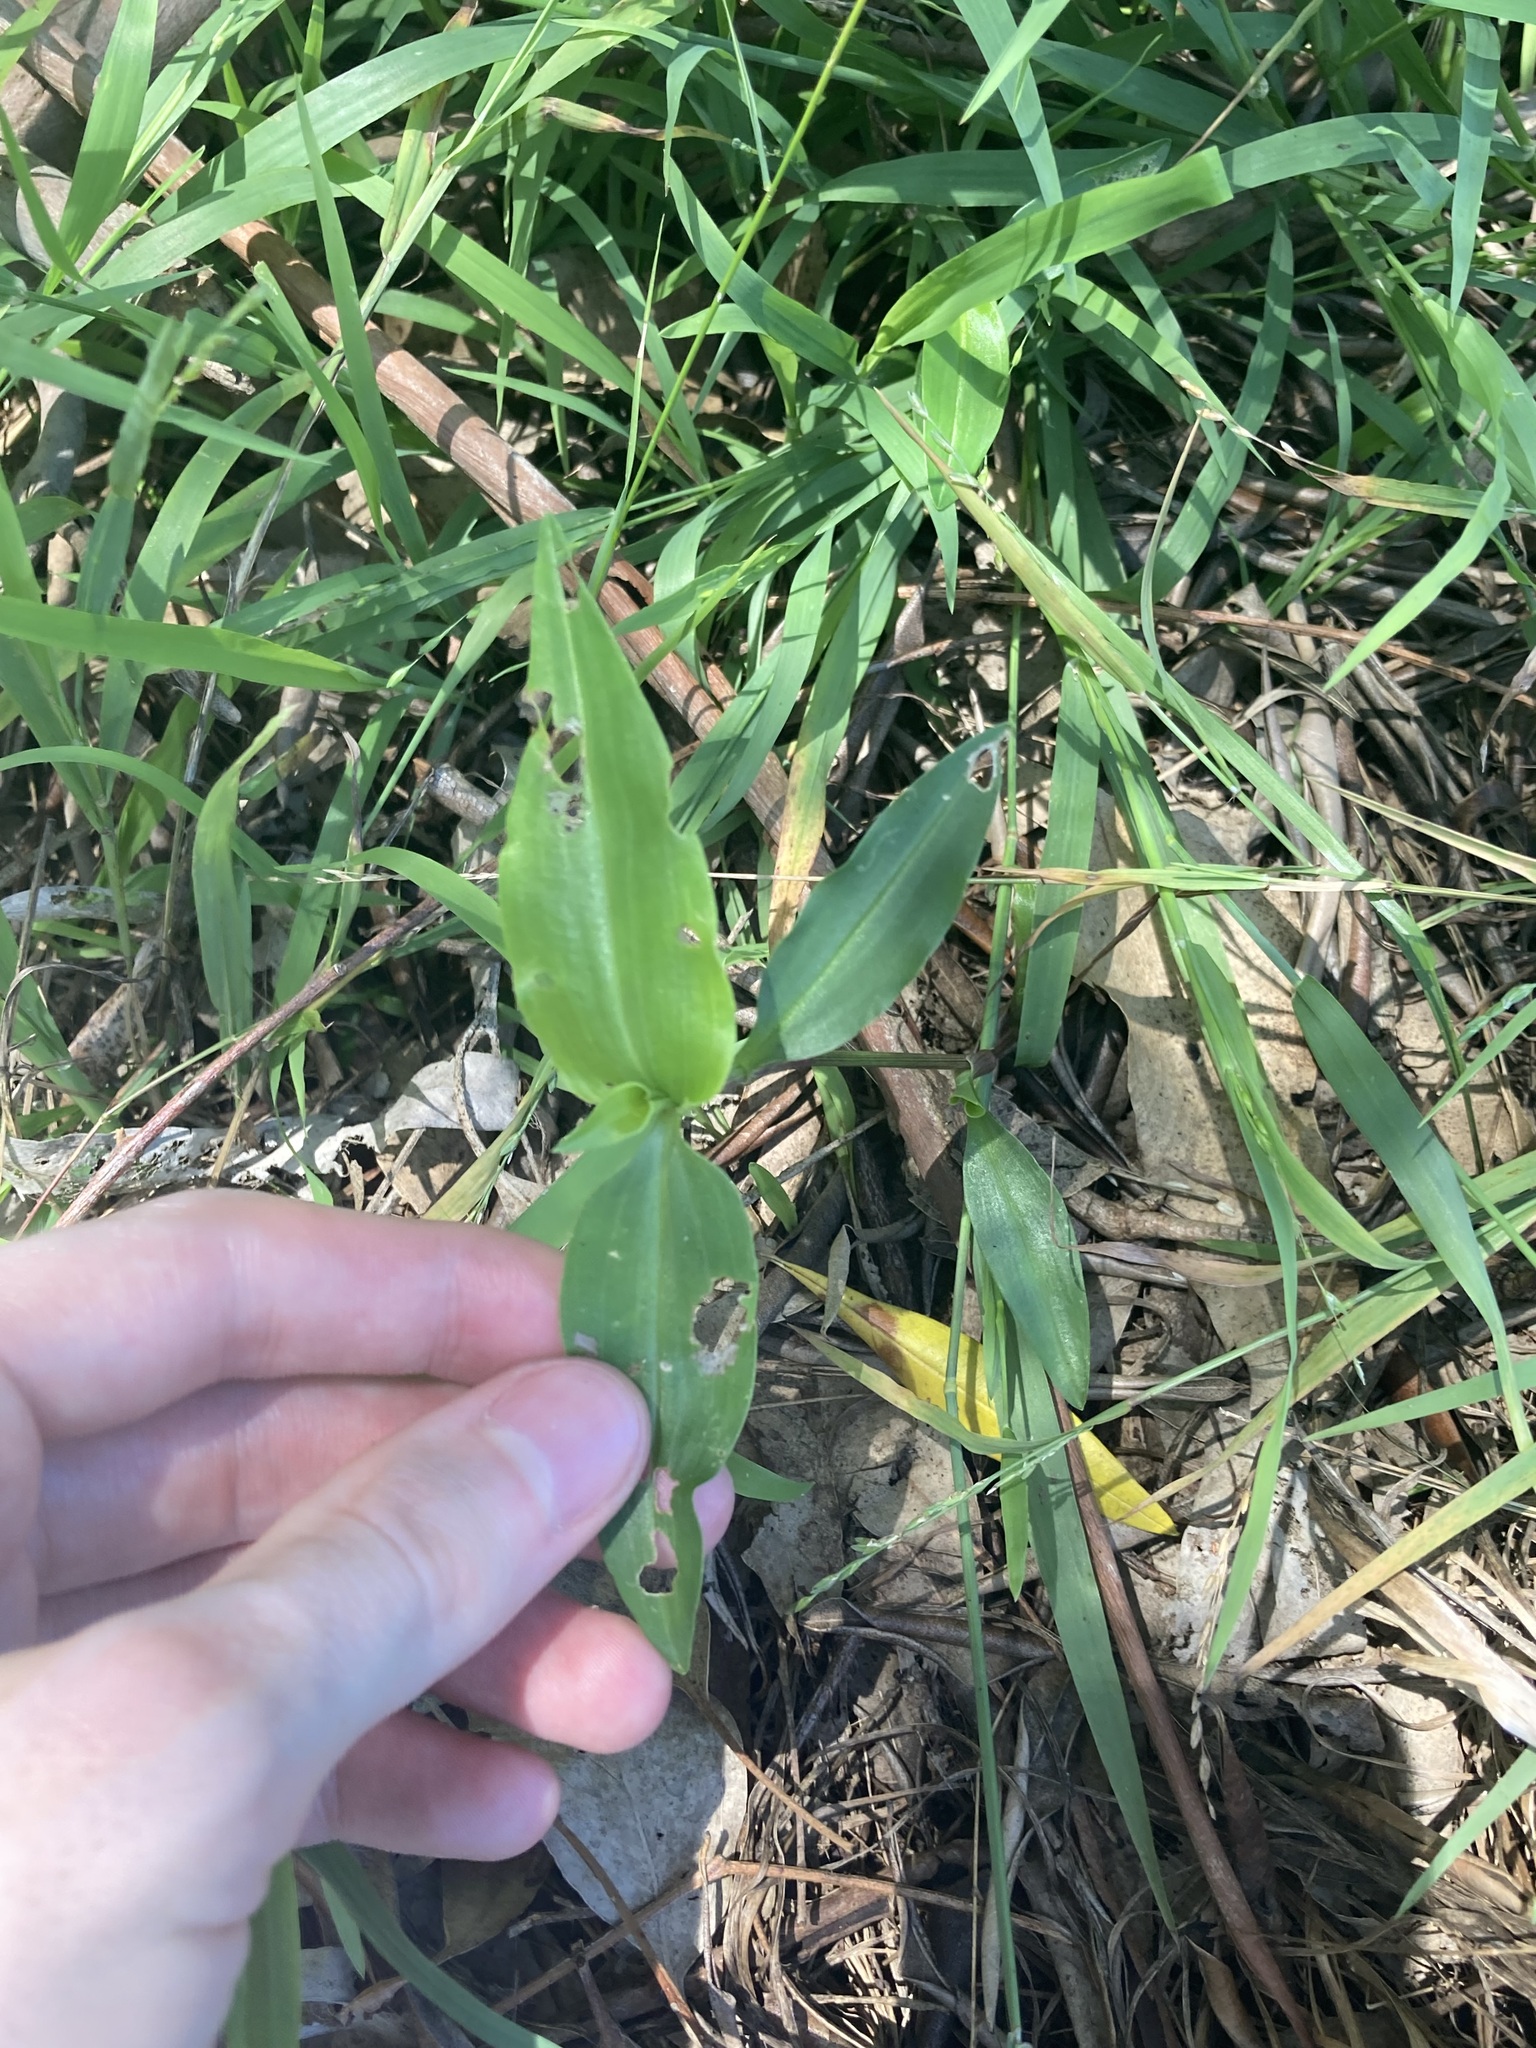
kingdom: Plantae
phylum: Tracheophyta
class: Liliopsida
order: Commelinales
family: Commelinaceae
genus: Commelina
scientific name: Commelina cyanea
